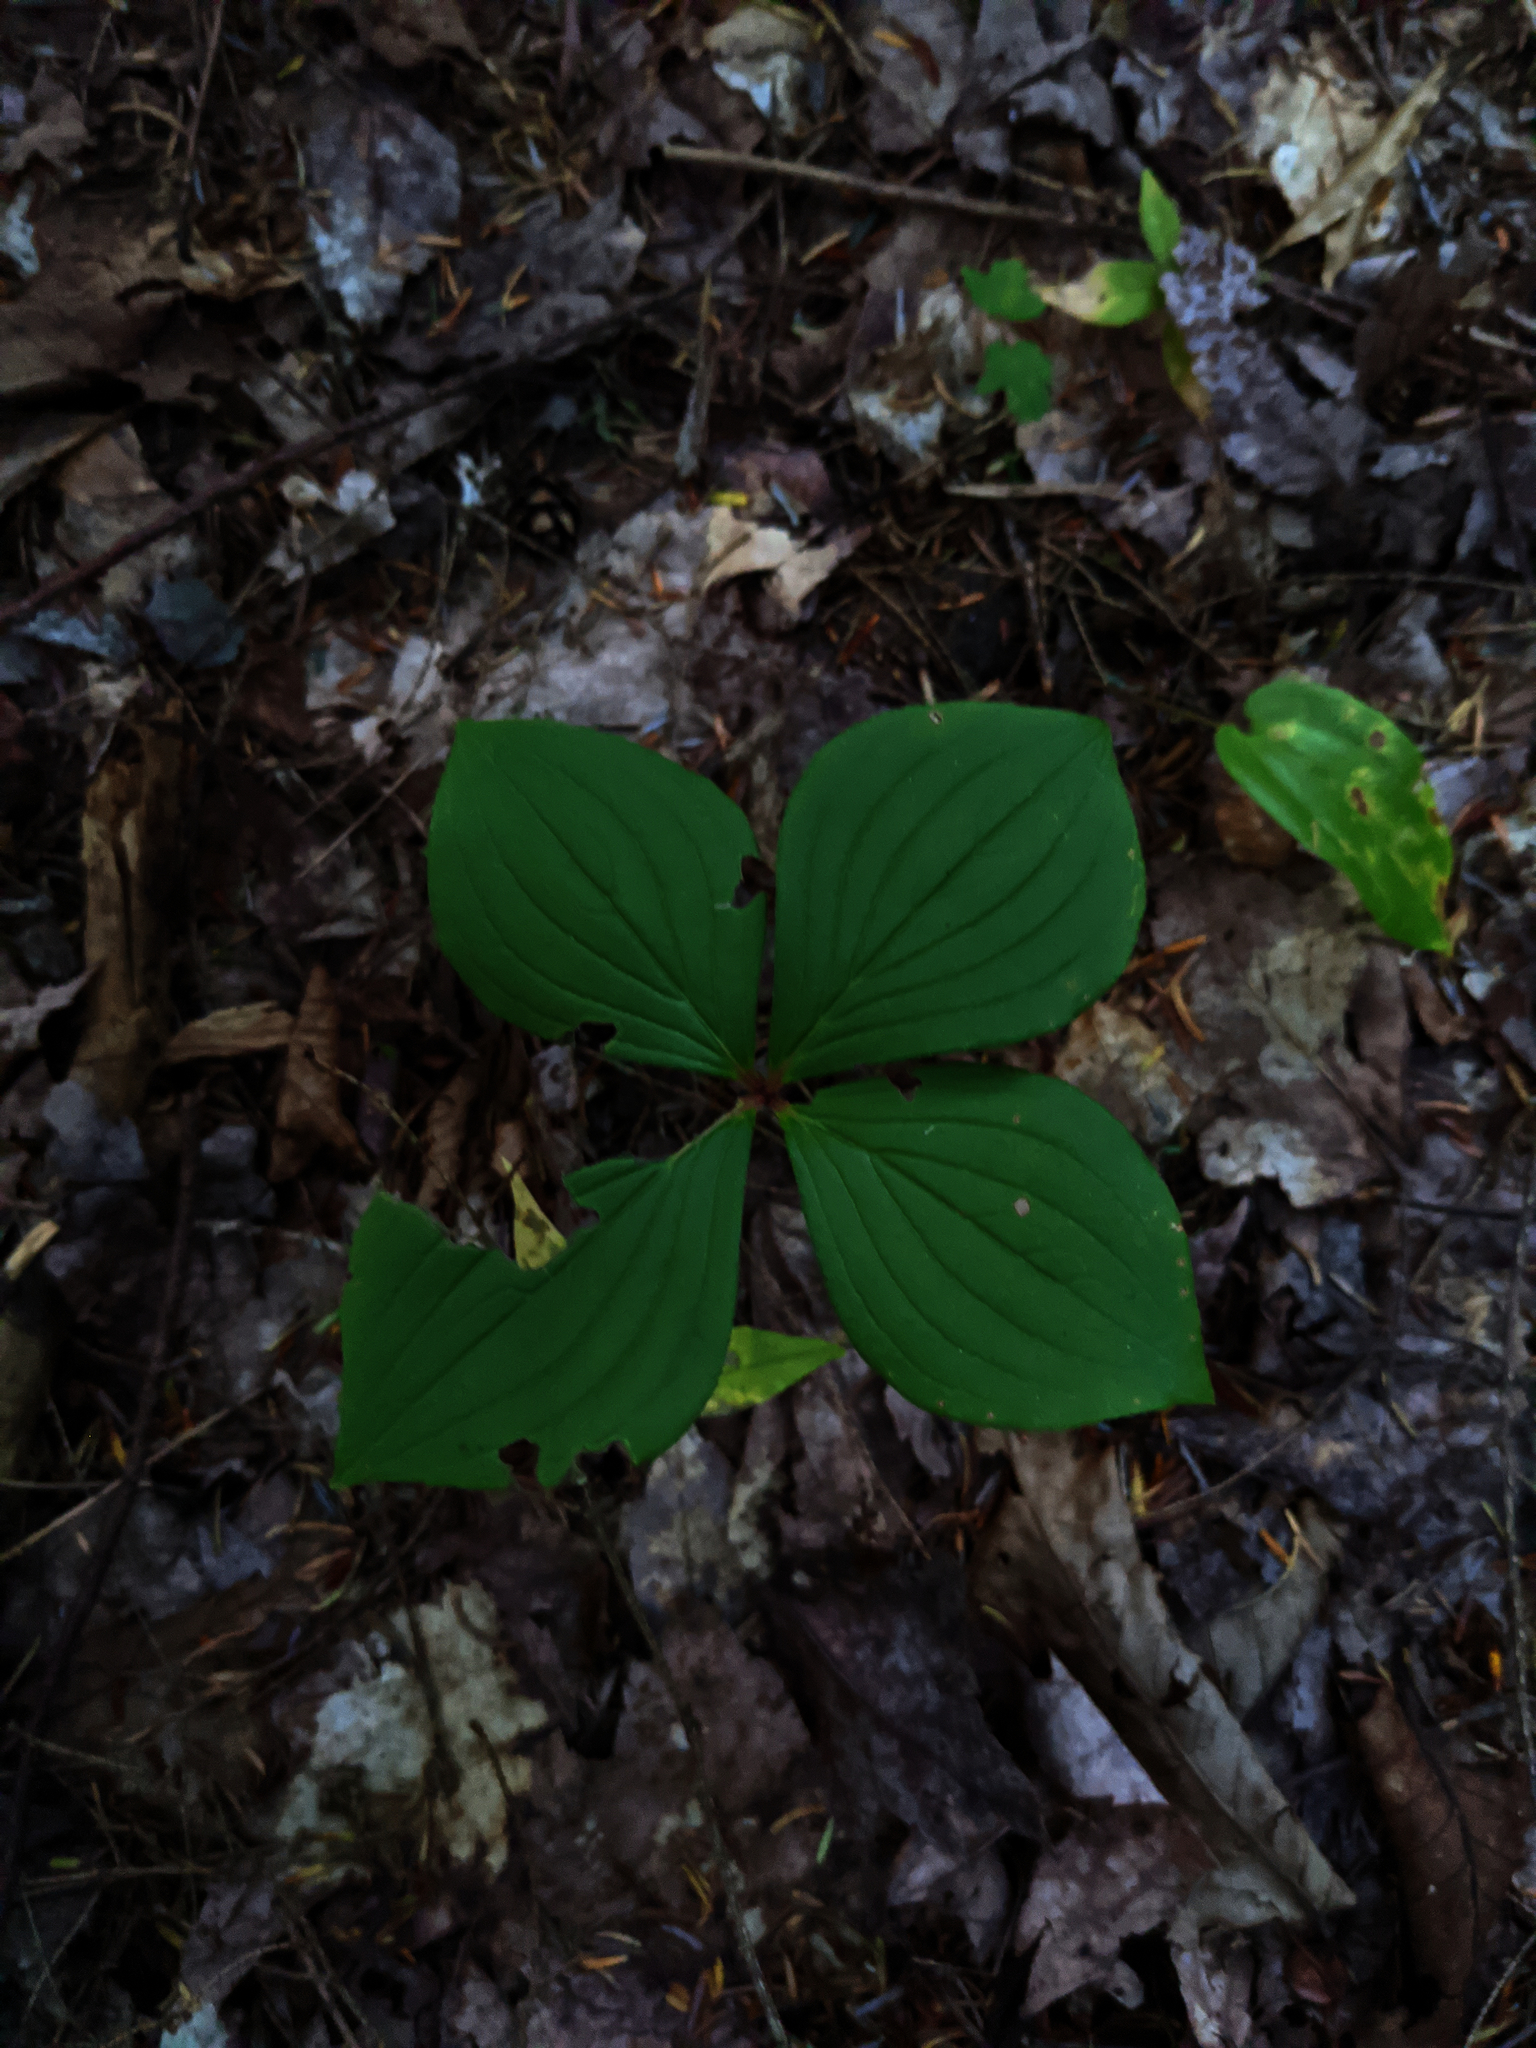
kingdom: Plantae
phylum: Tracheophyta
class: Magnoliopsida
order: Cornales
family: Cornaceae
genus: Cornus
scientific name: Cornus canadensis
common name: Creeping dogwood
